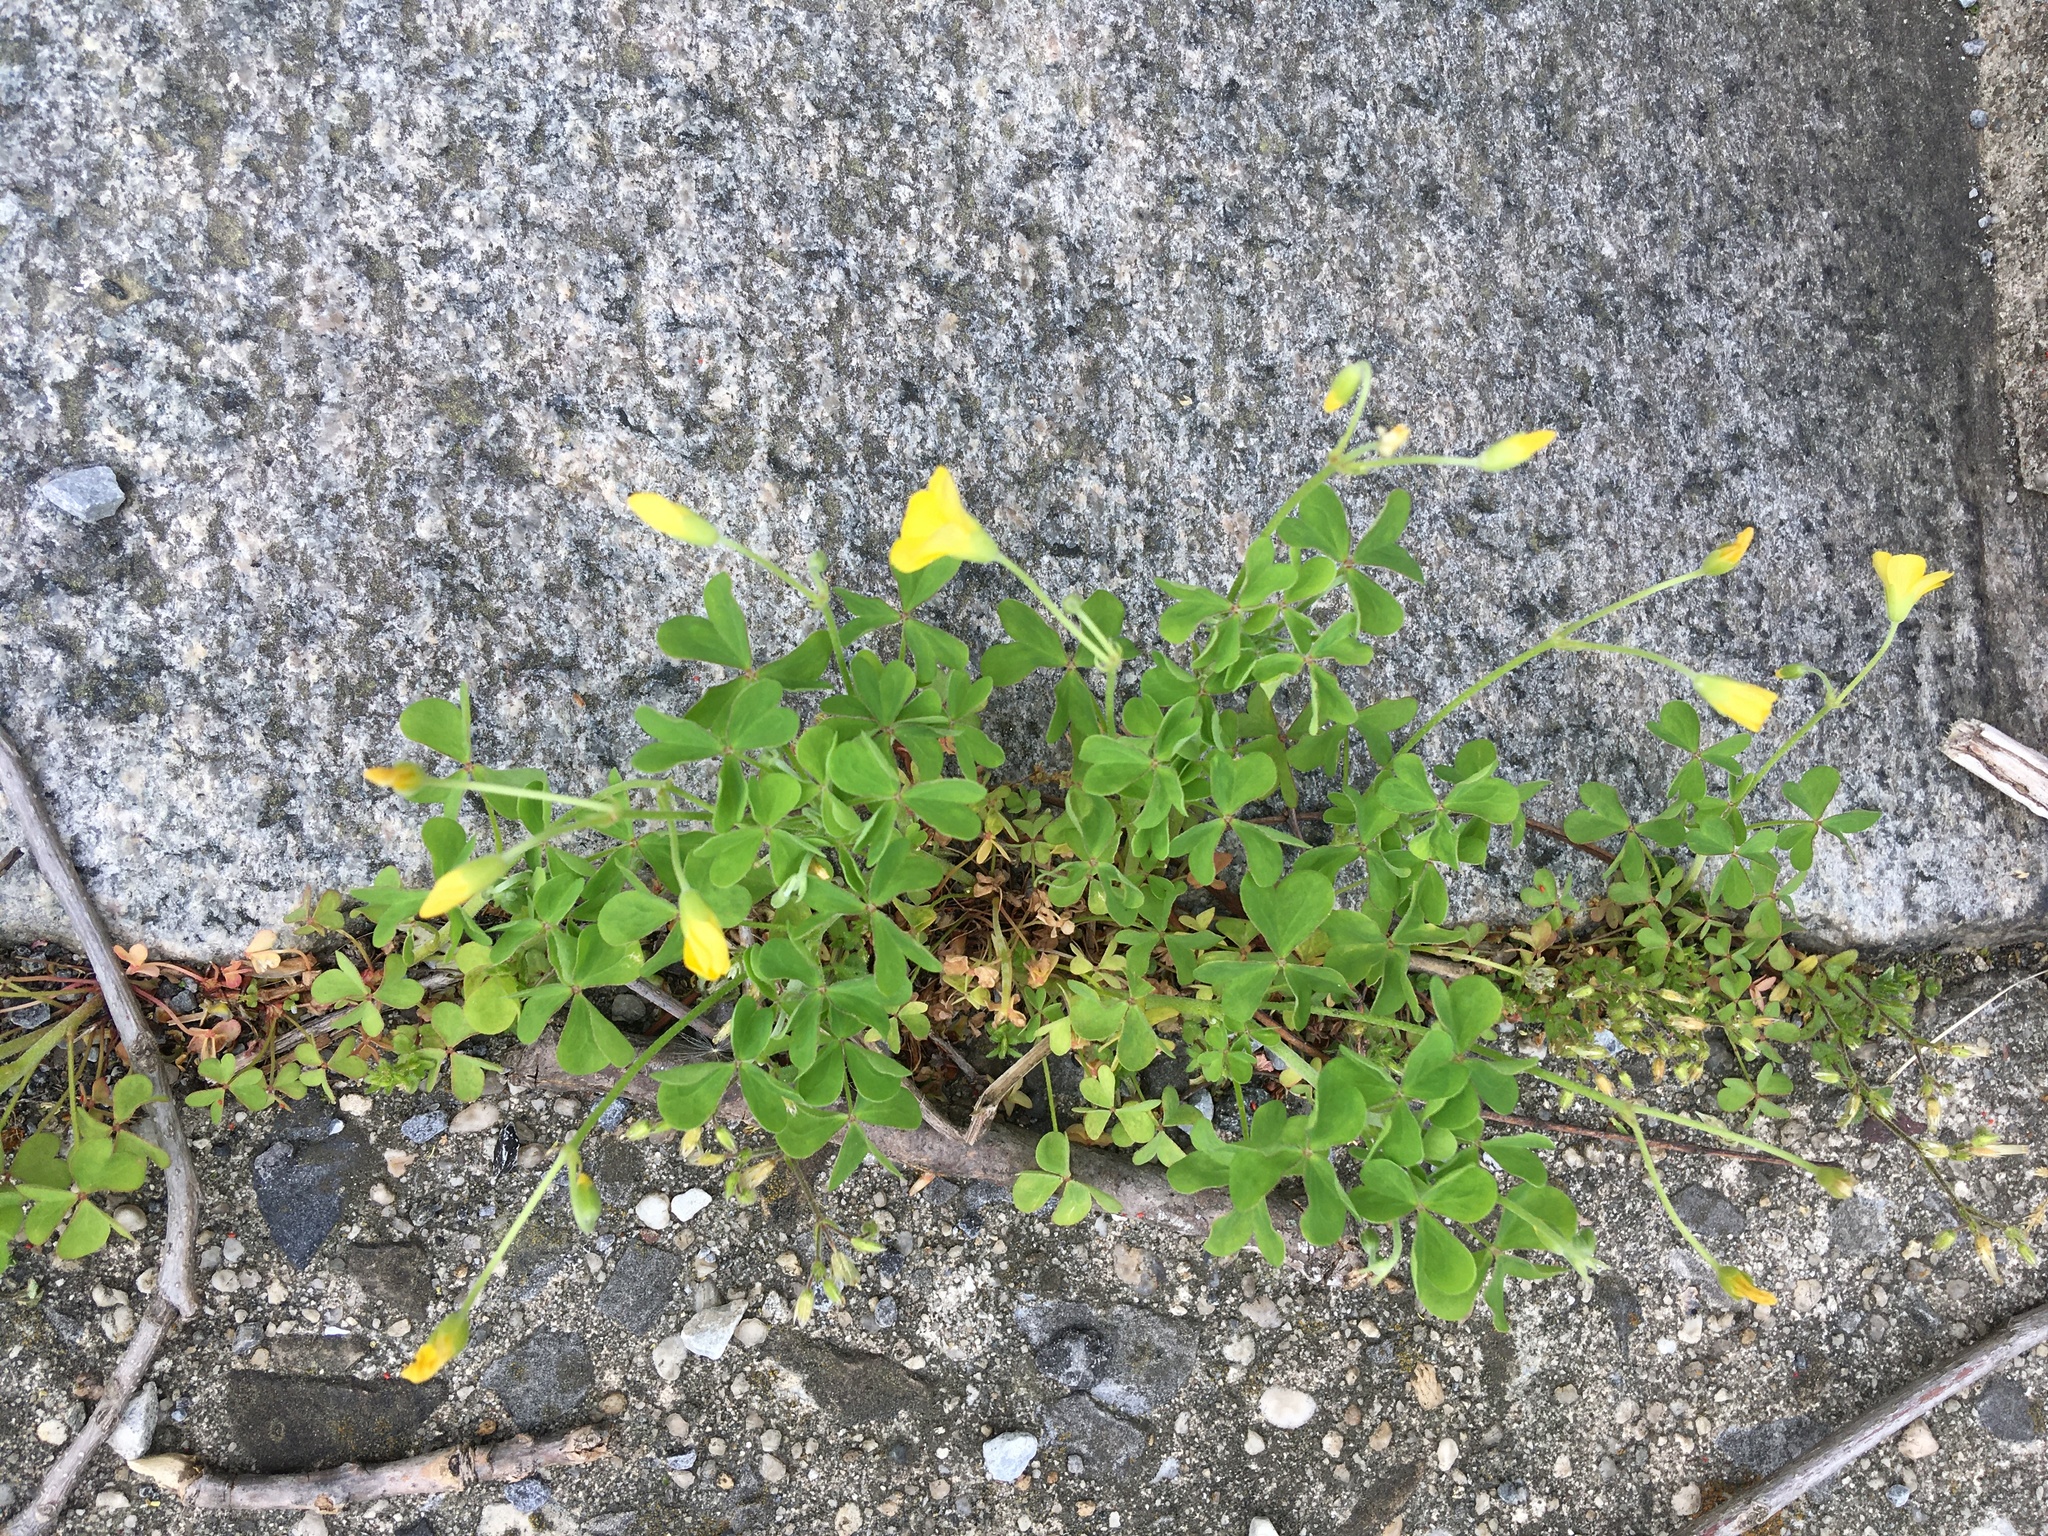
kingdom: Plantae
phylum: Tracheophyta
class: Magnoliopsida
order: Oxalidales
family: Oxalidaceae
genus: Oxalis
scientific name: Oxalis dillenii
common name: Sussex yellow-sorrel
